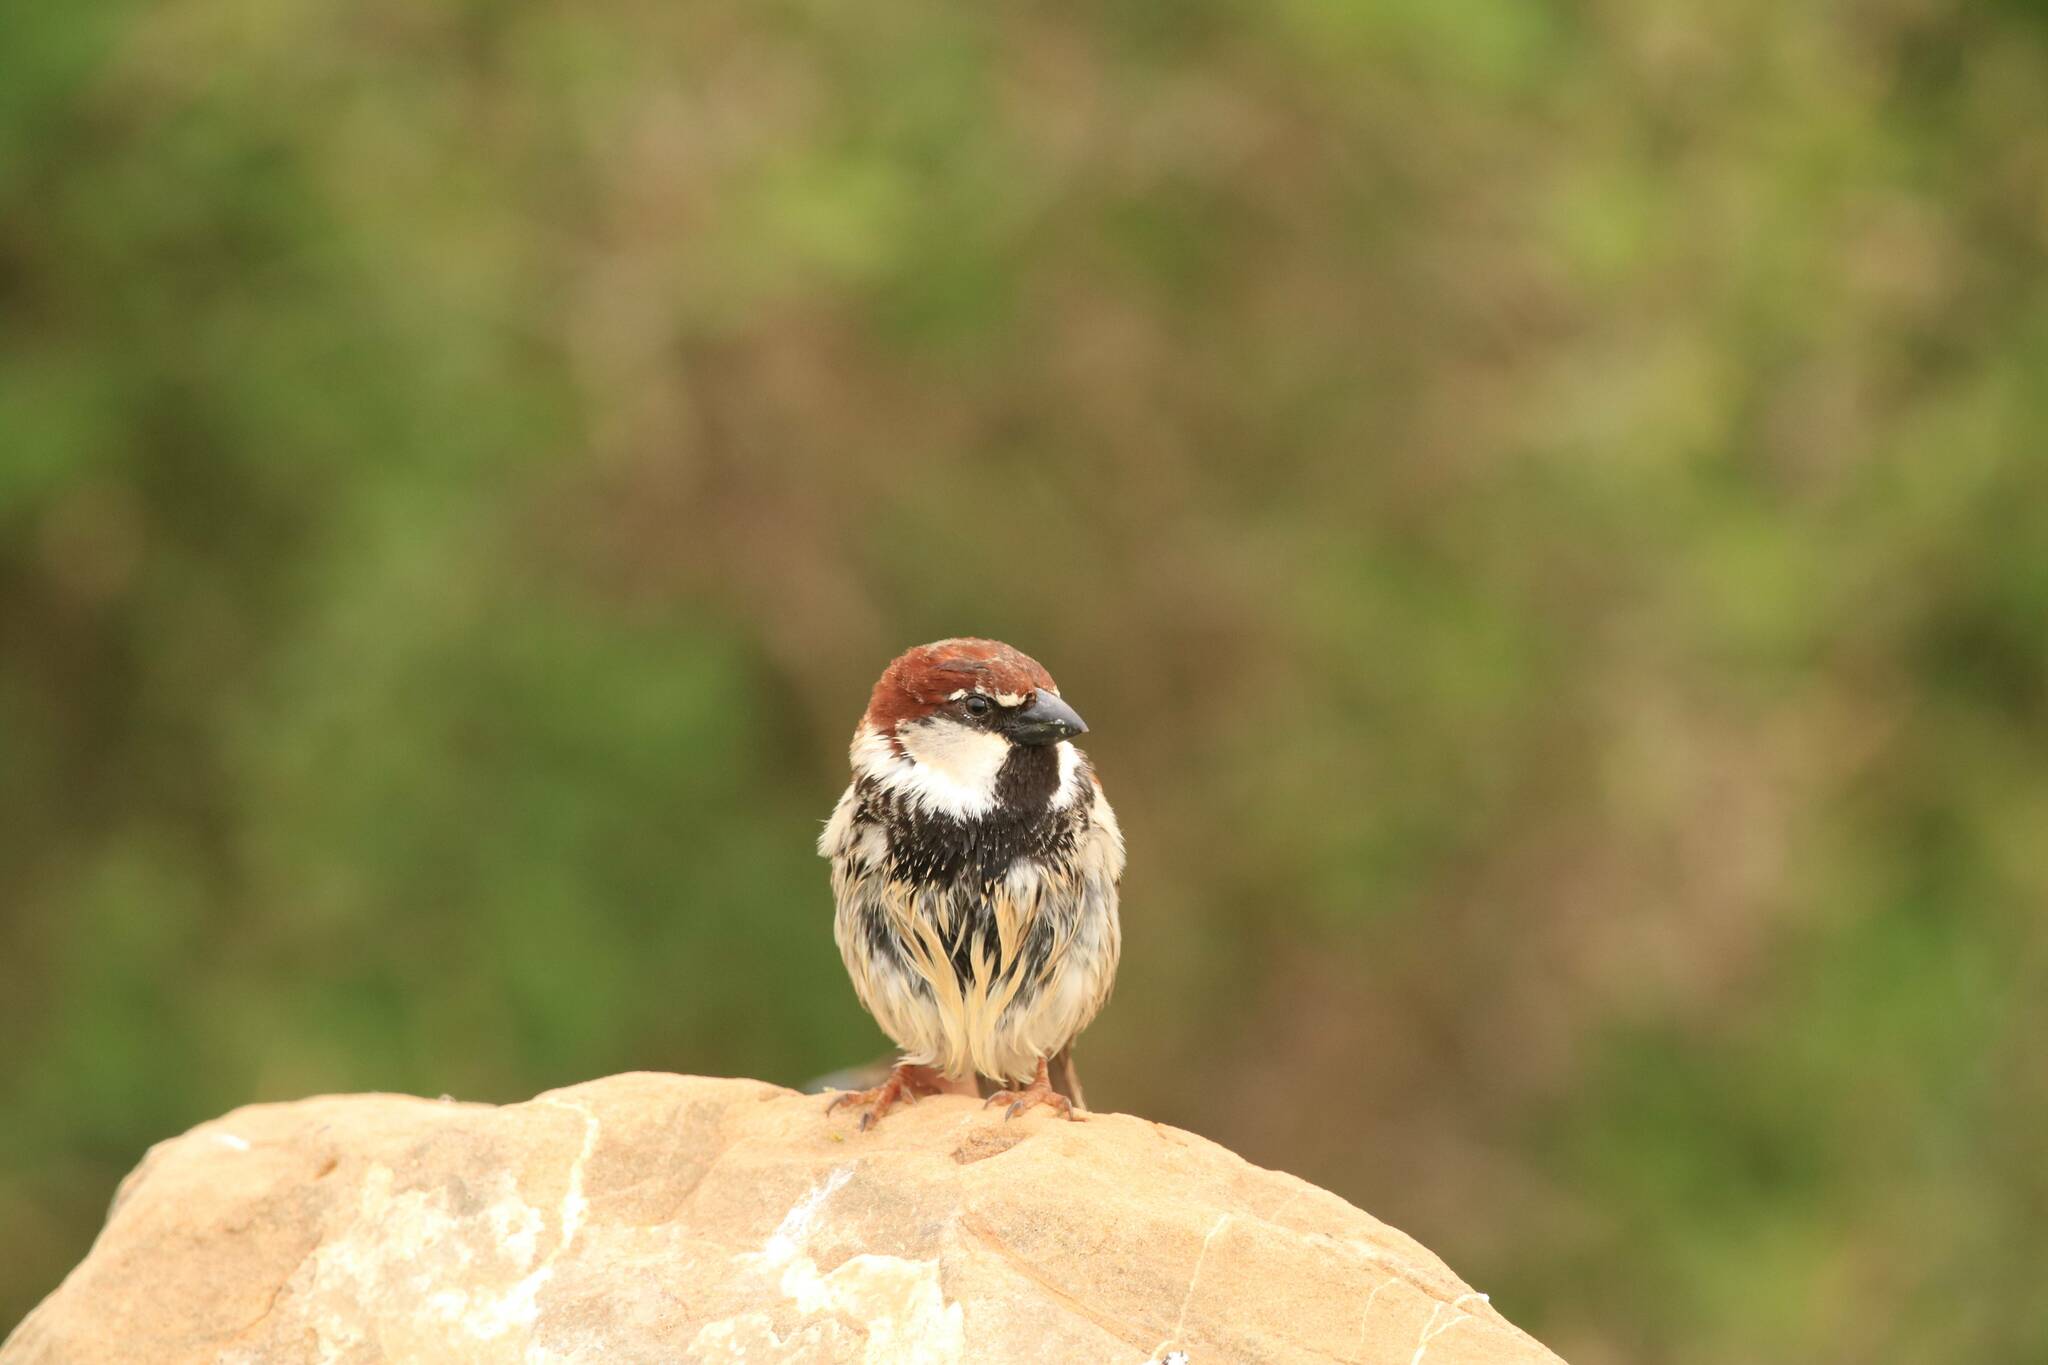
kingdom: Animalia
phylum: Chordata
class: Aves
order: Passeriformes
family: Passeridae
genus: Passer
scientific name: Passer hispaniolensis
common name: Spanish sparrow
